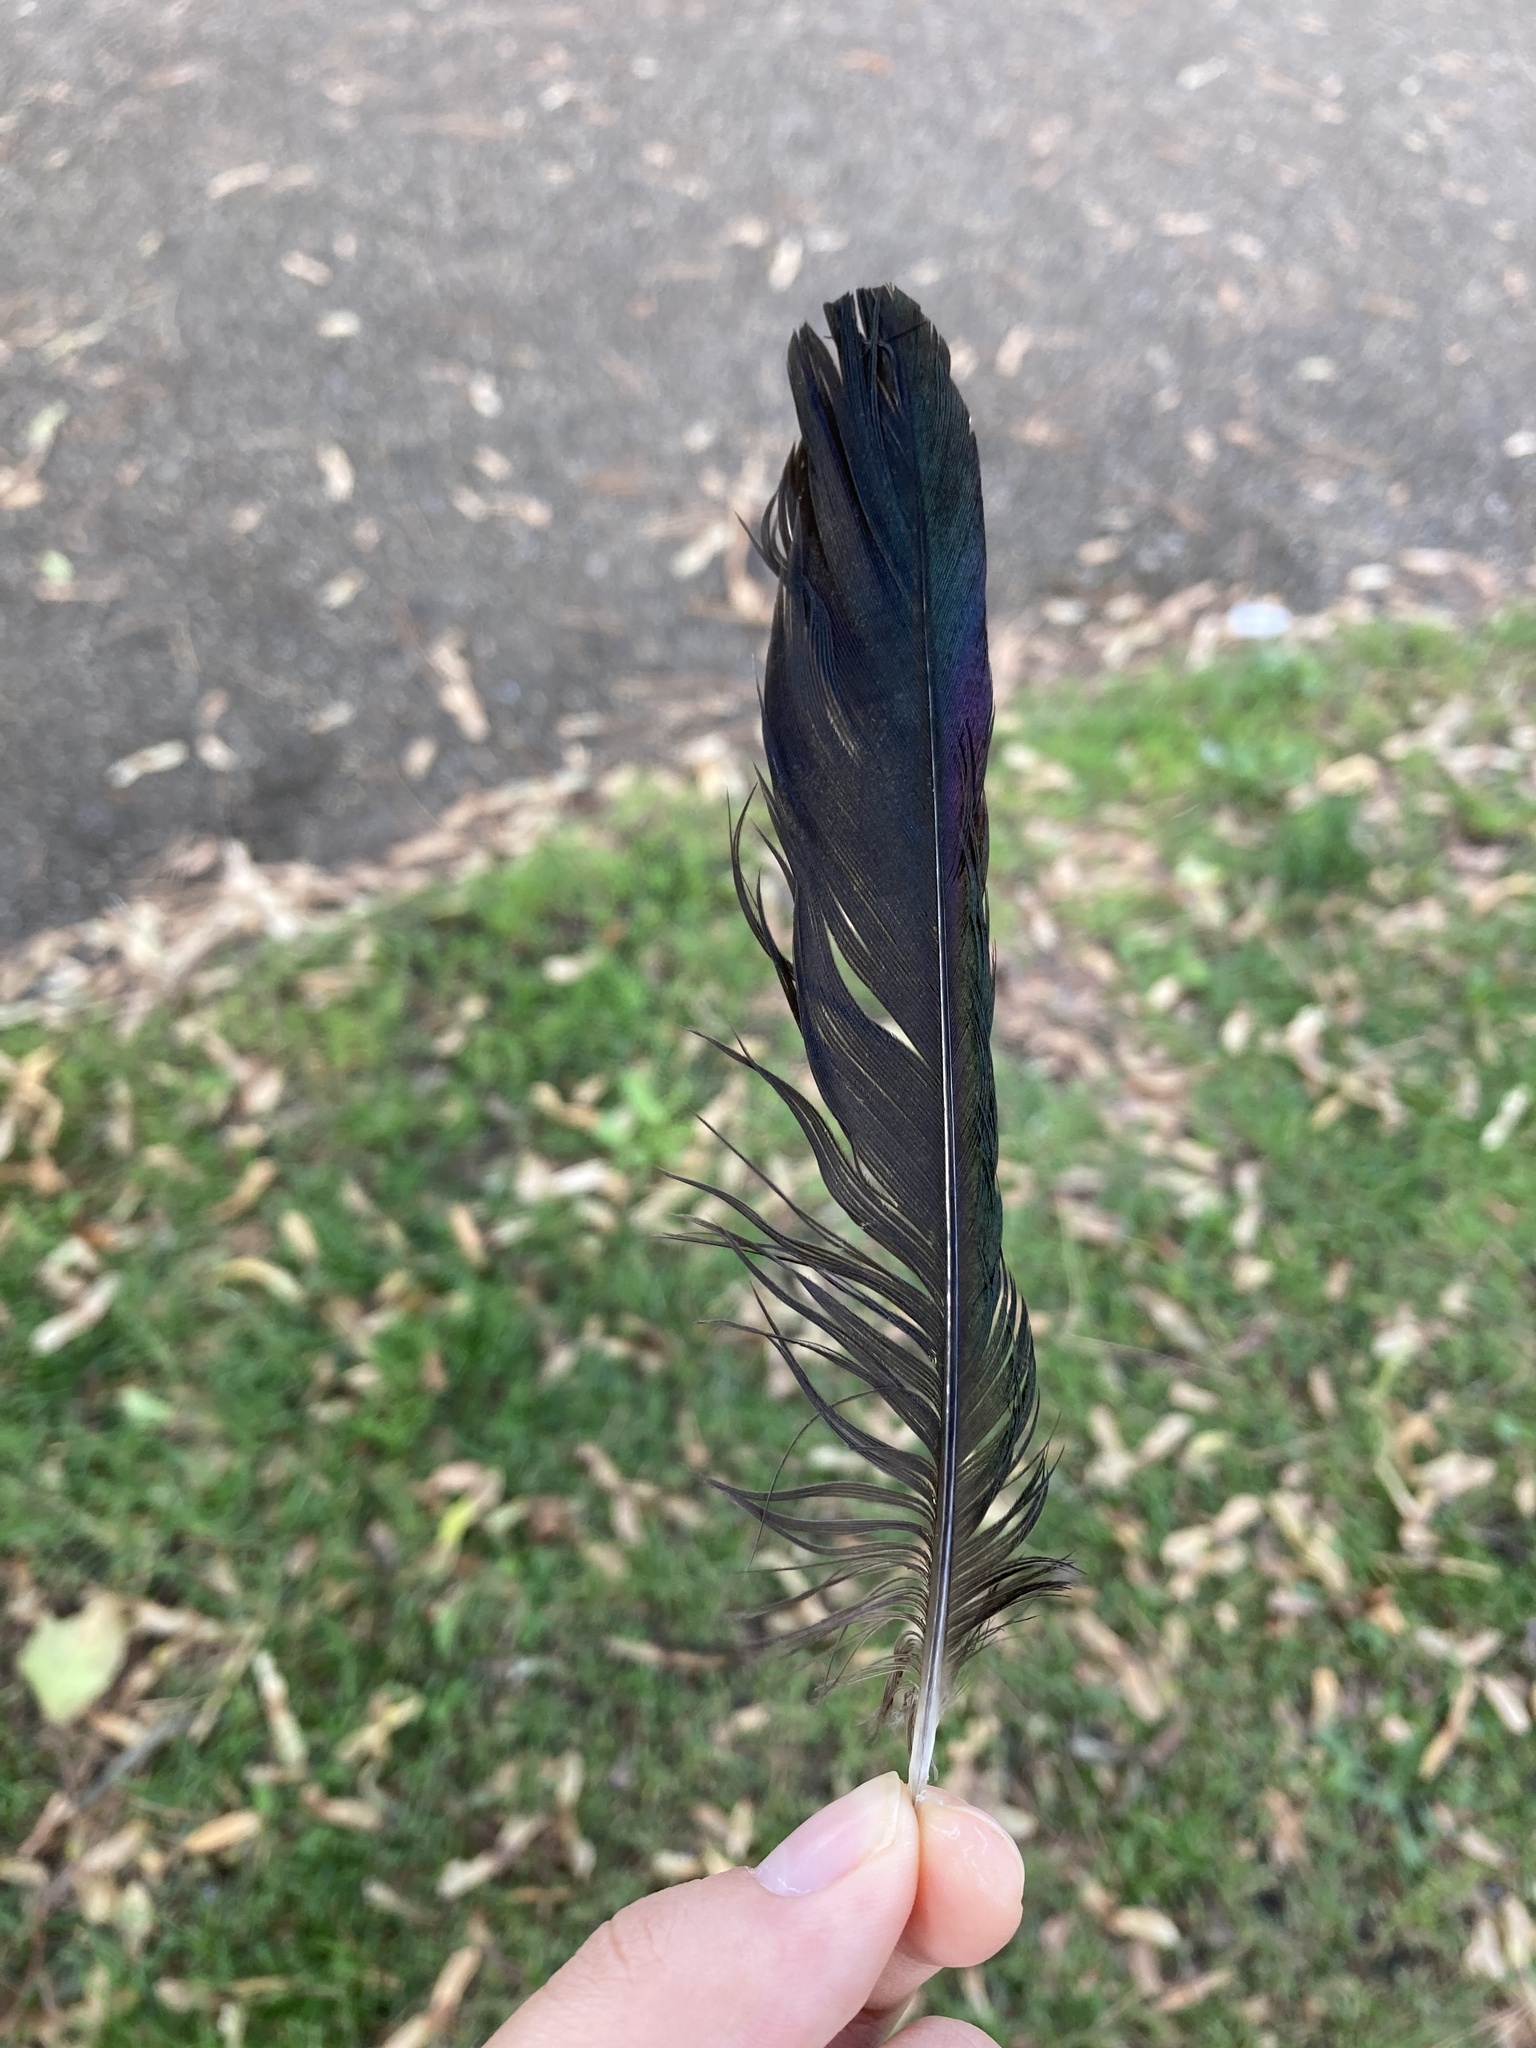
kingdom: Animalia
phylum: Chordata
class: Aves
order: Passeriformes
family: Corvidae
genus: Pica
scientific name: Pica pica
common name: Eurasian magpie
